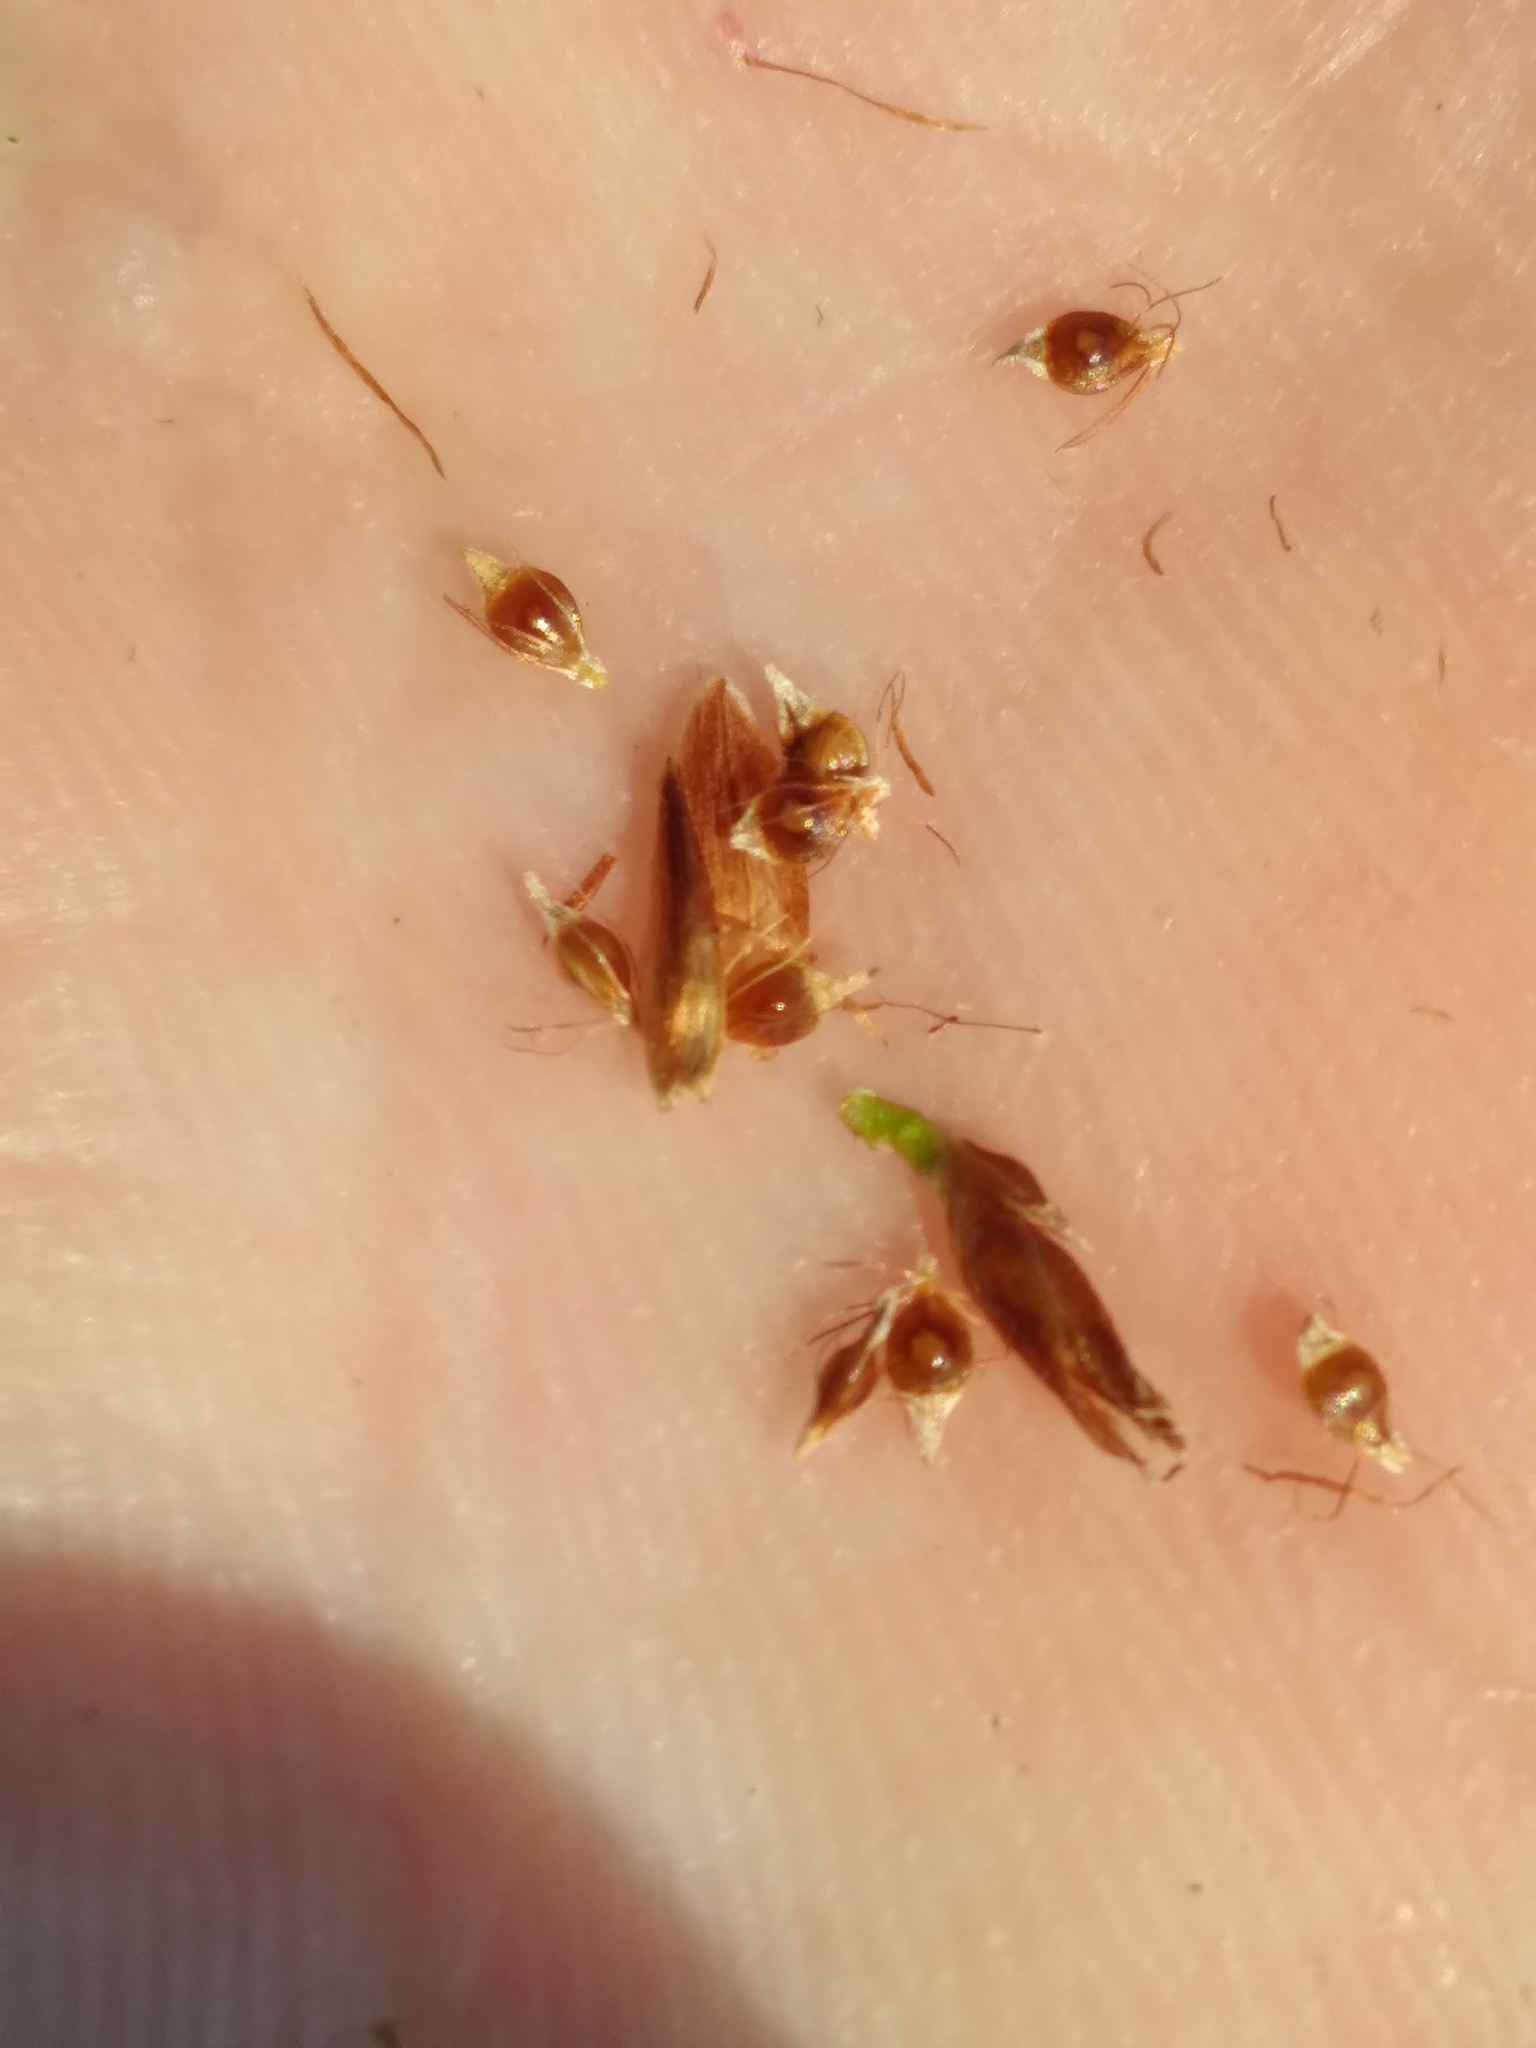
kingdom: Plantae
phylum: Tracheophyta
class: Liliopsida
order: Poales
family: Cyperaceae
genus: Rhynchospora
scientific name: Rhynchospora harperi
